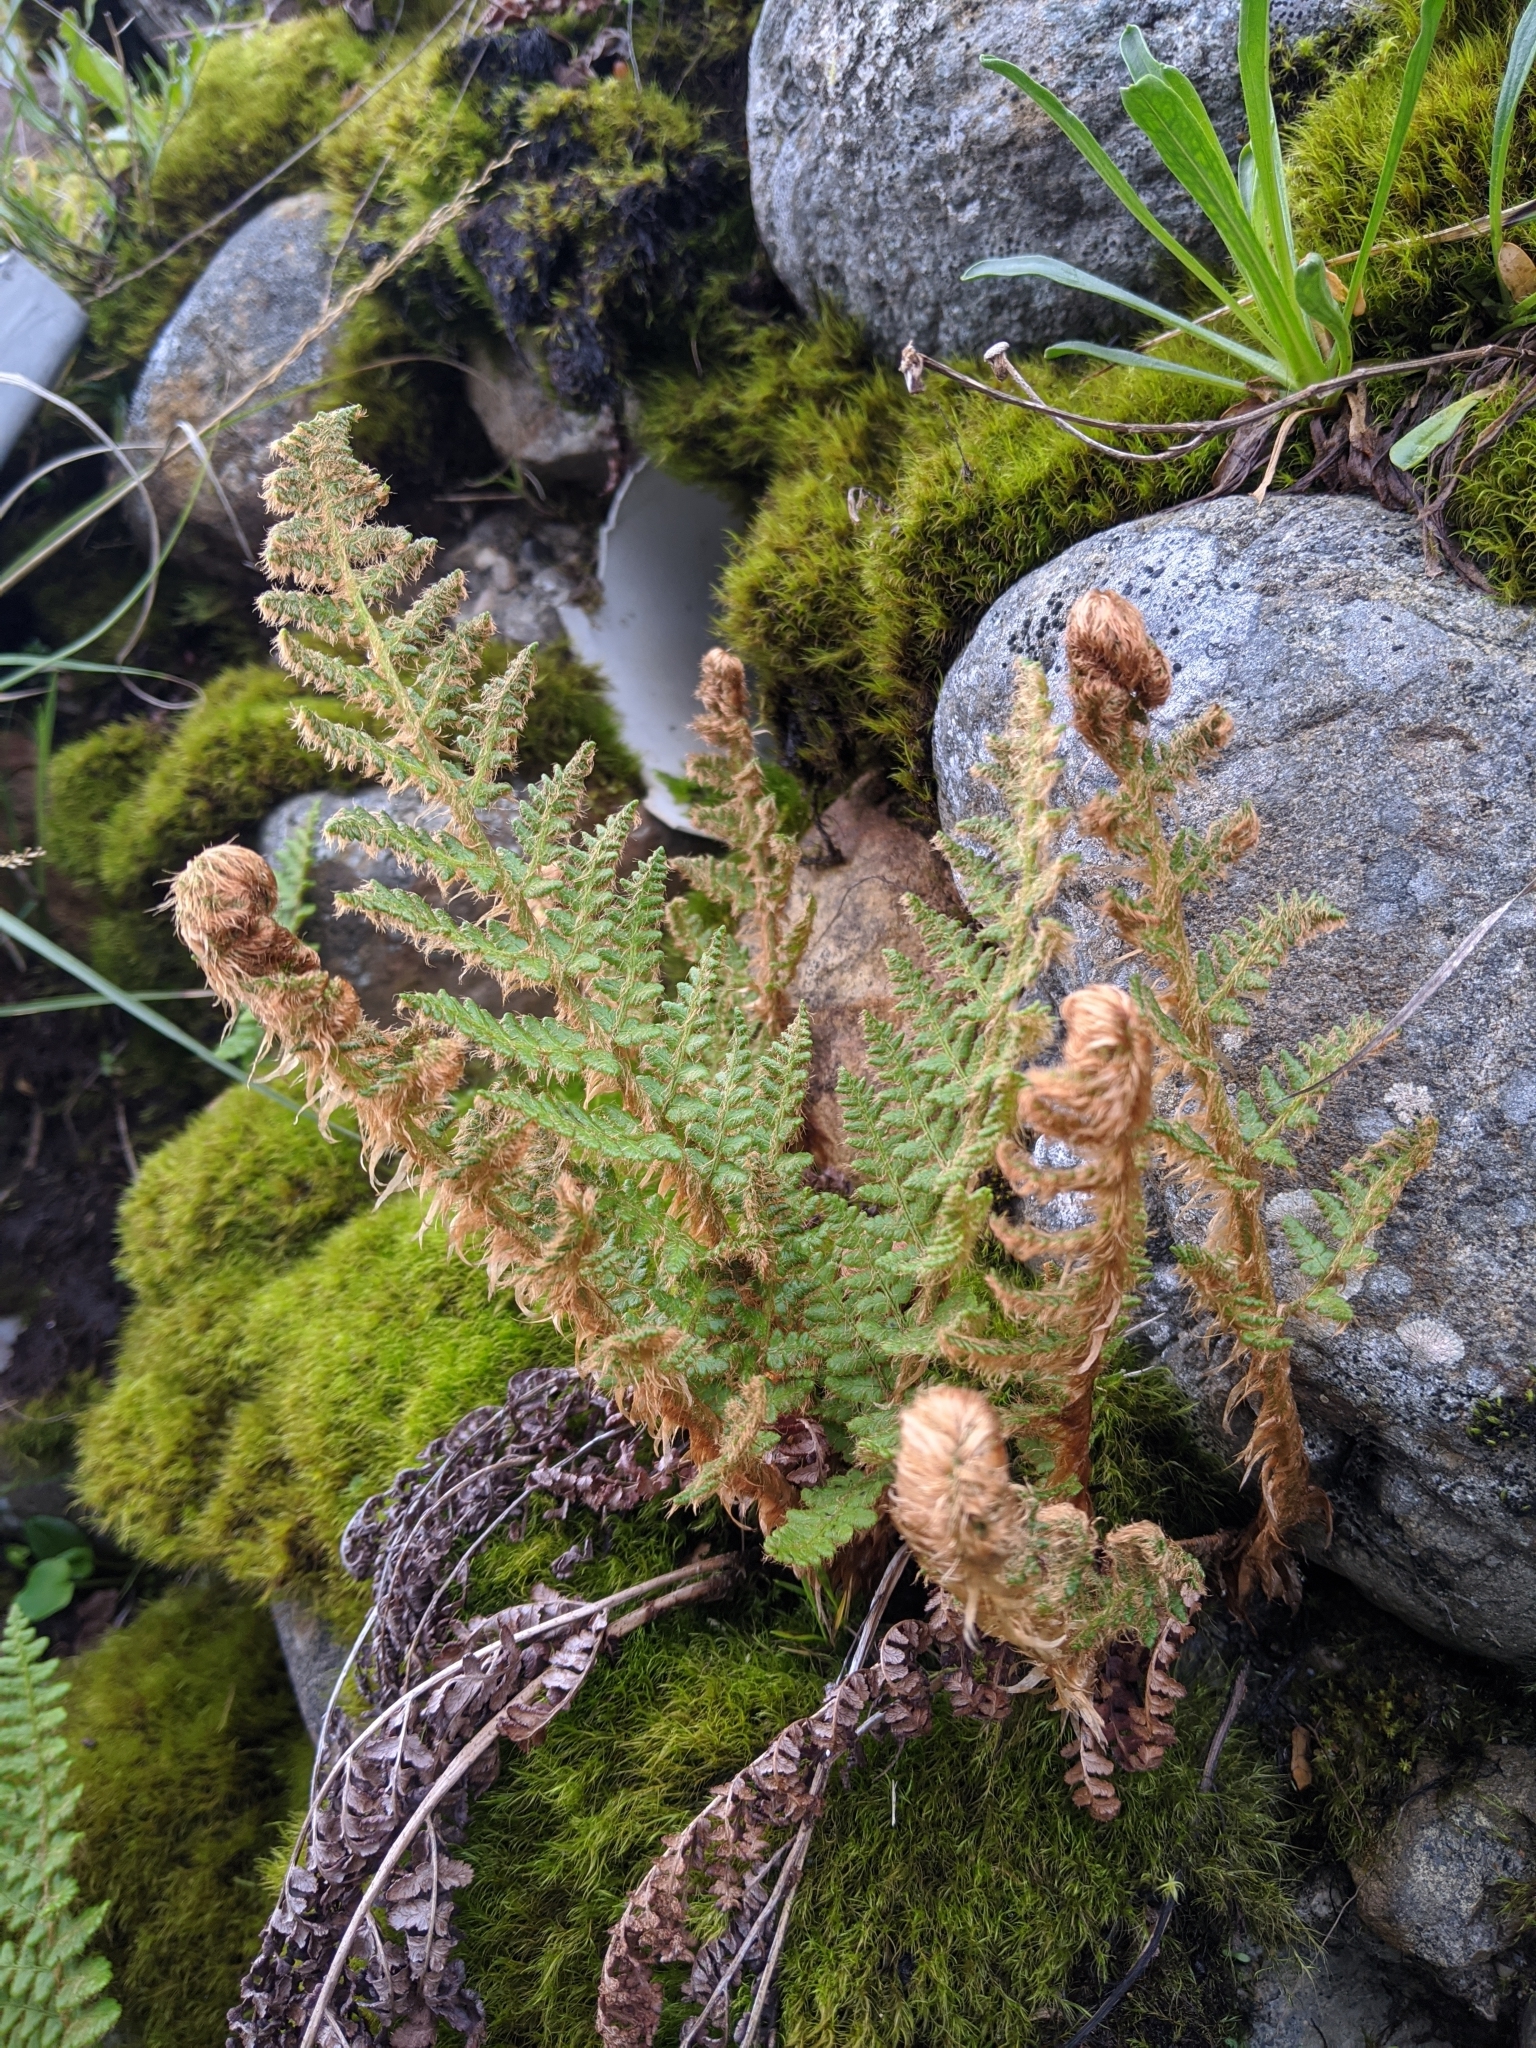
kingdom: Plantae
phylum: Tracheophyta
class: Polypodiopsida
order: Polypodiales
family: Dryopteridaceae
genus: Dryopteris
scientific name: Dryopteris komarovii
